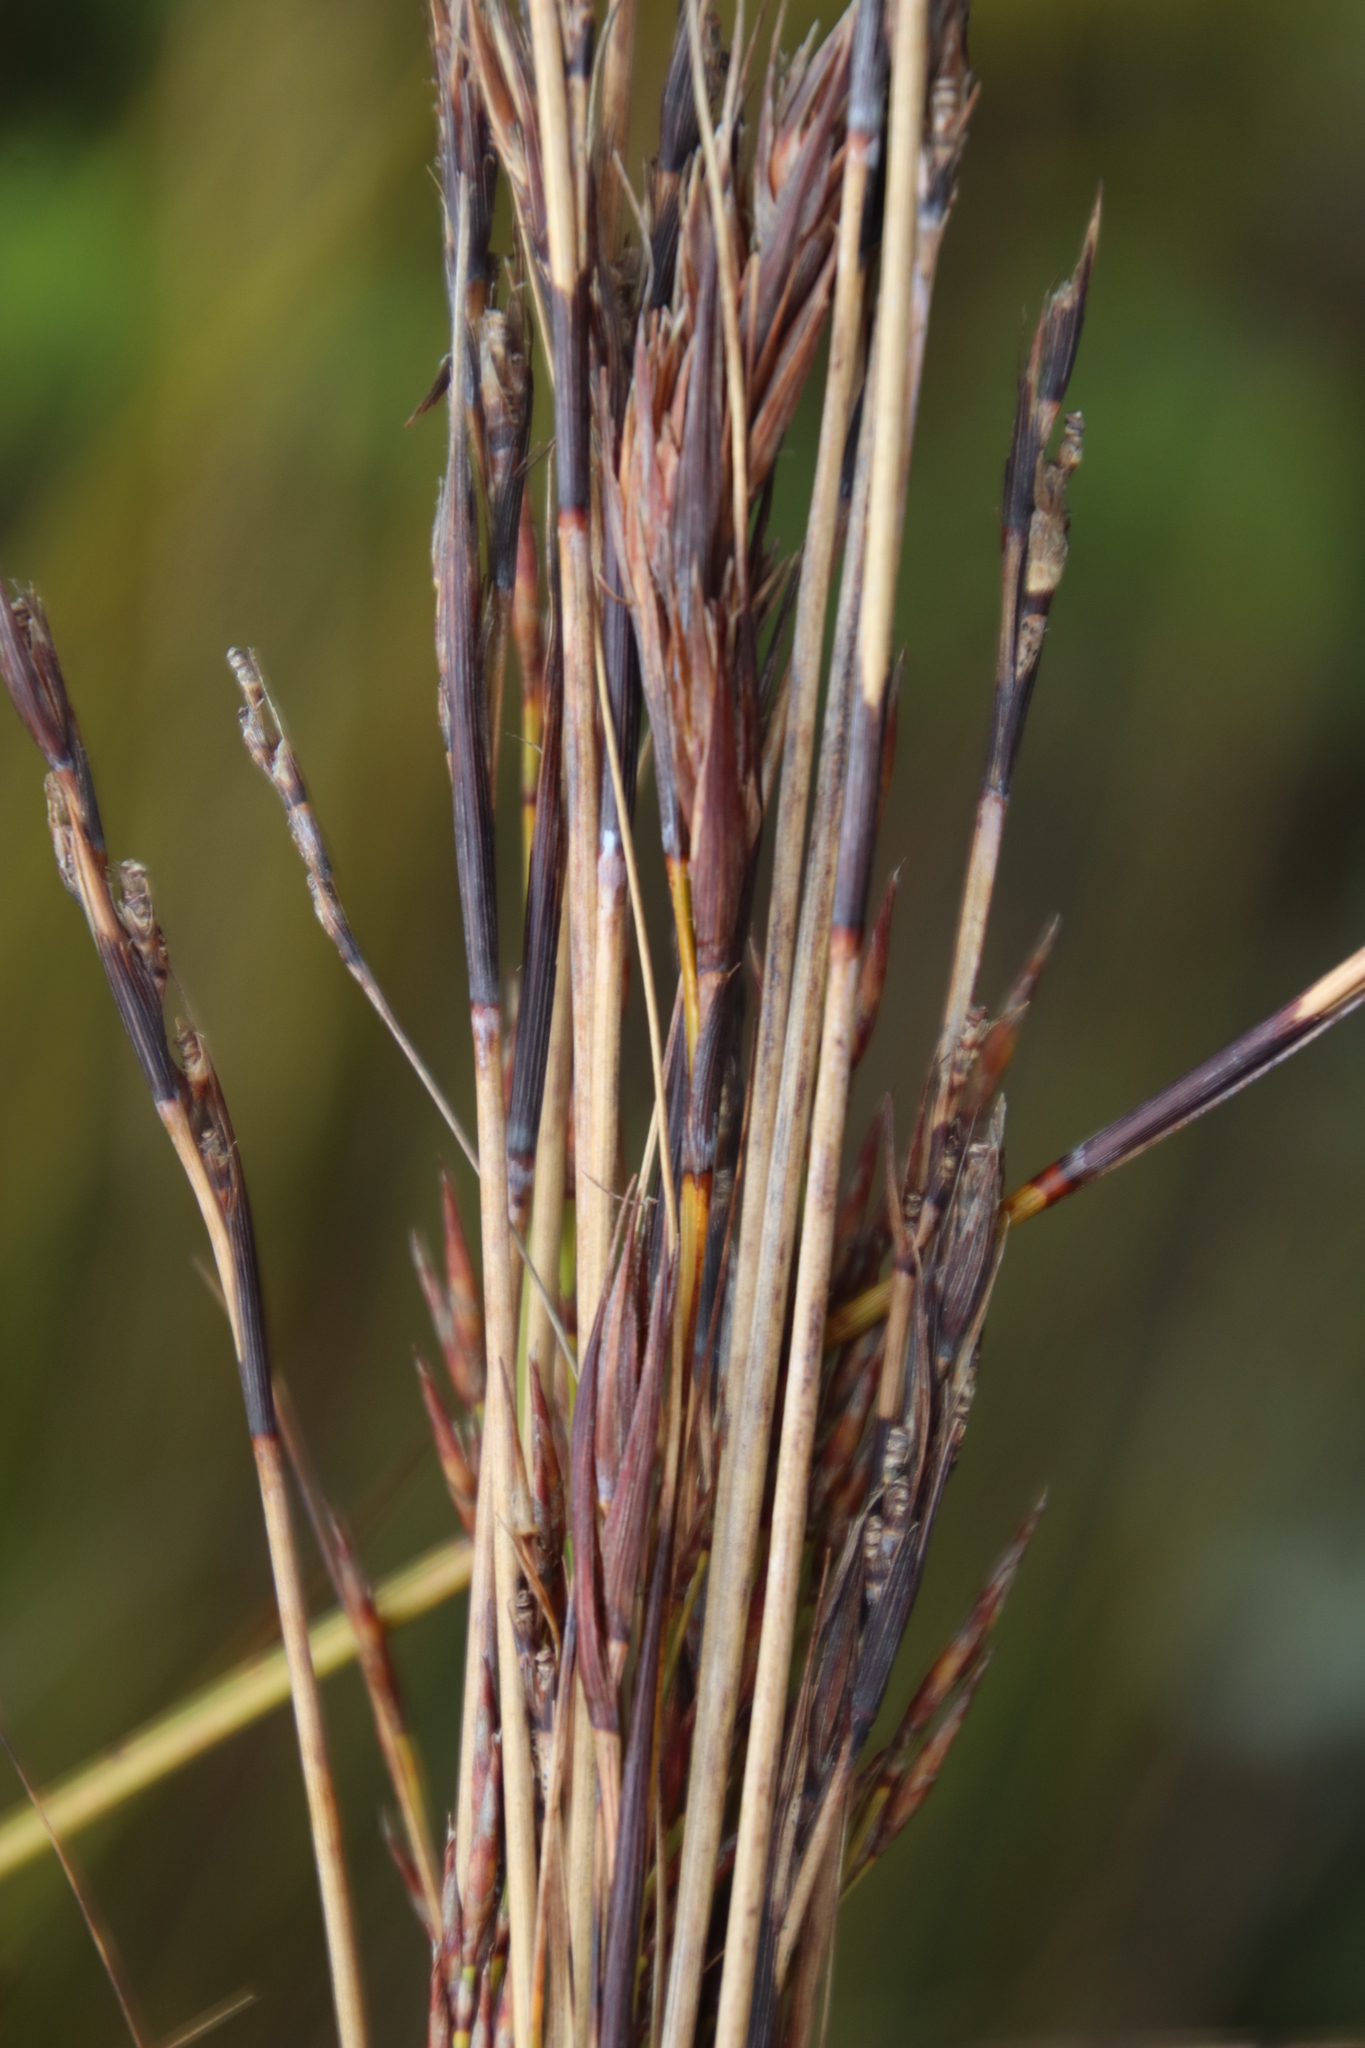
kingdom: Plantae
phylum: Tracheophyta
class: Liliopsida
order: Poales
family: Cyperaceae
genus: Tetraria
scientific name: Tetraria ustulata
